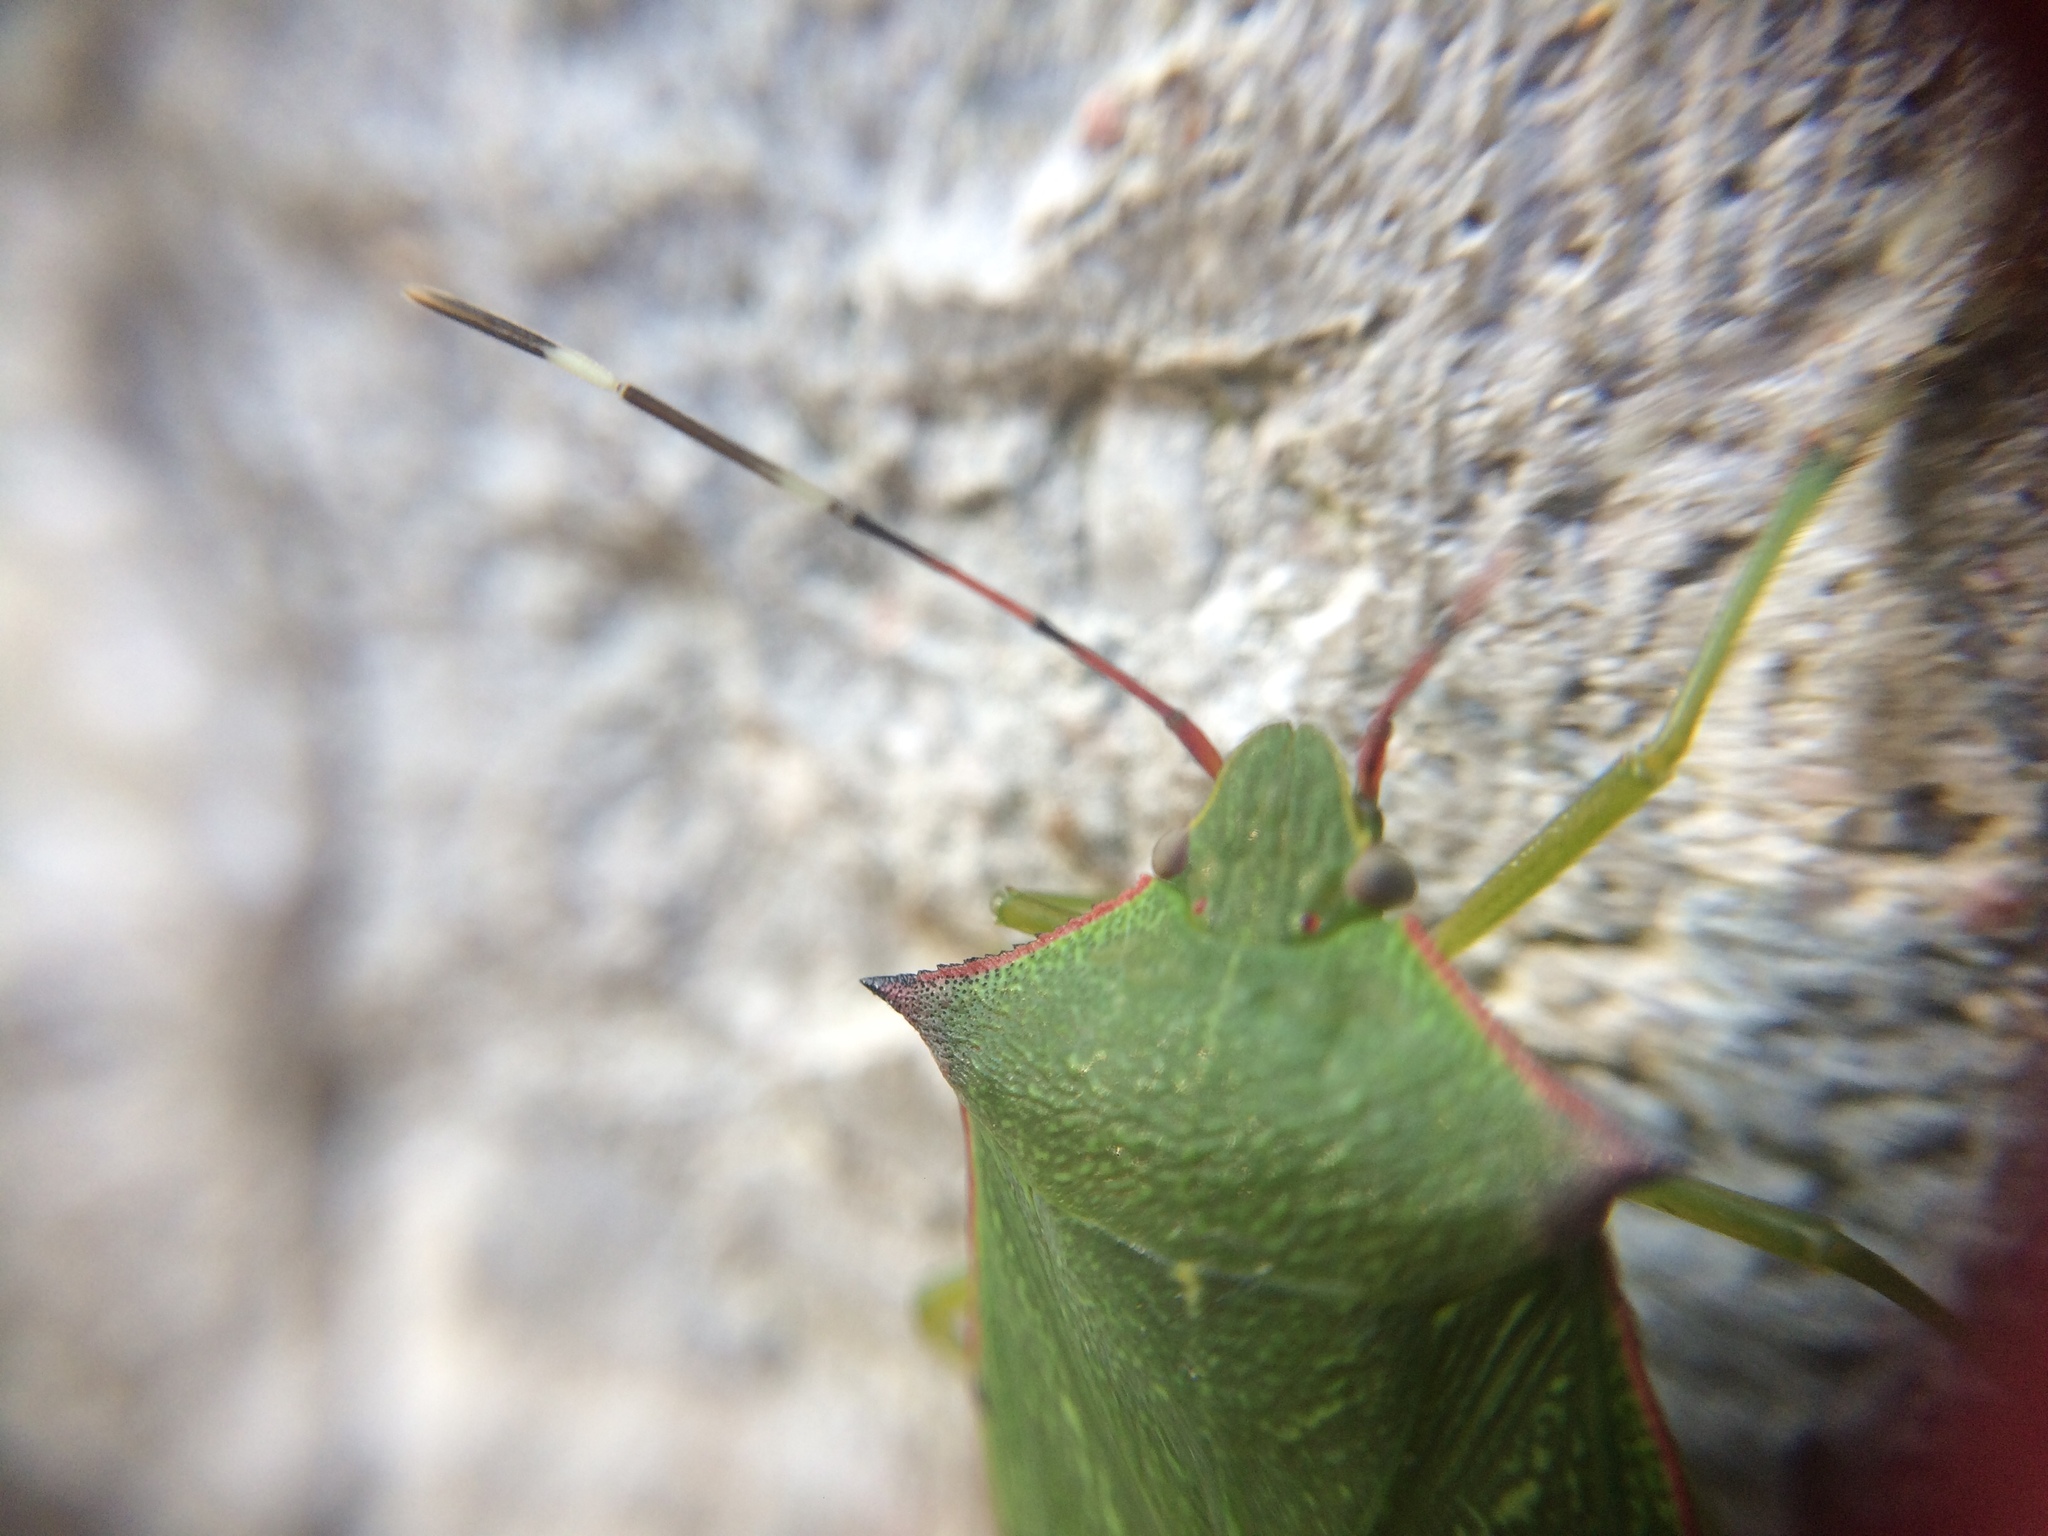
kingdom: Animalia
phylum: Arthropoda
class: Insecta
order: Hemiptera
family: Pentatomidae
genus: Chlorocoris
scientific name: Chlorocoris
